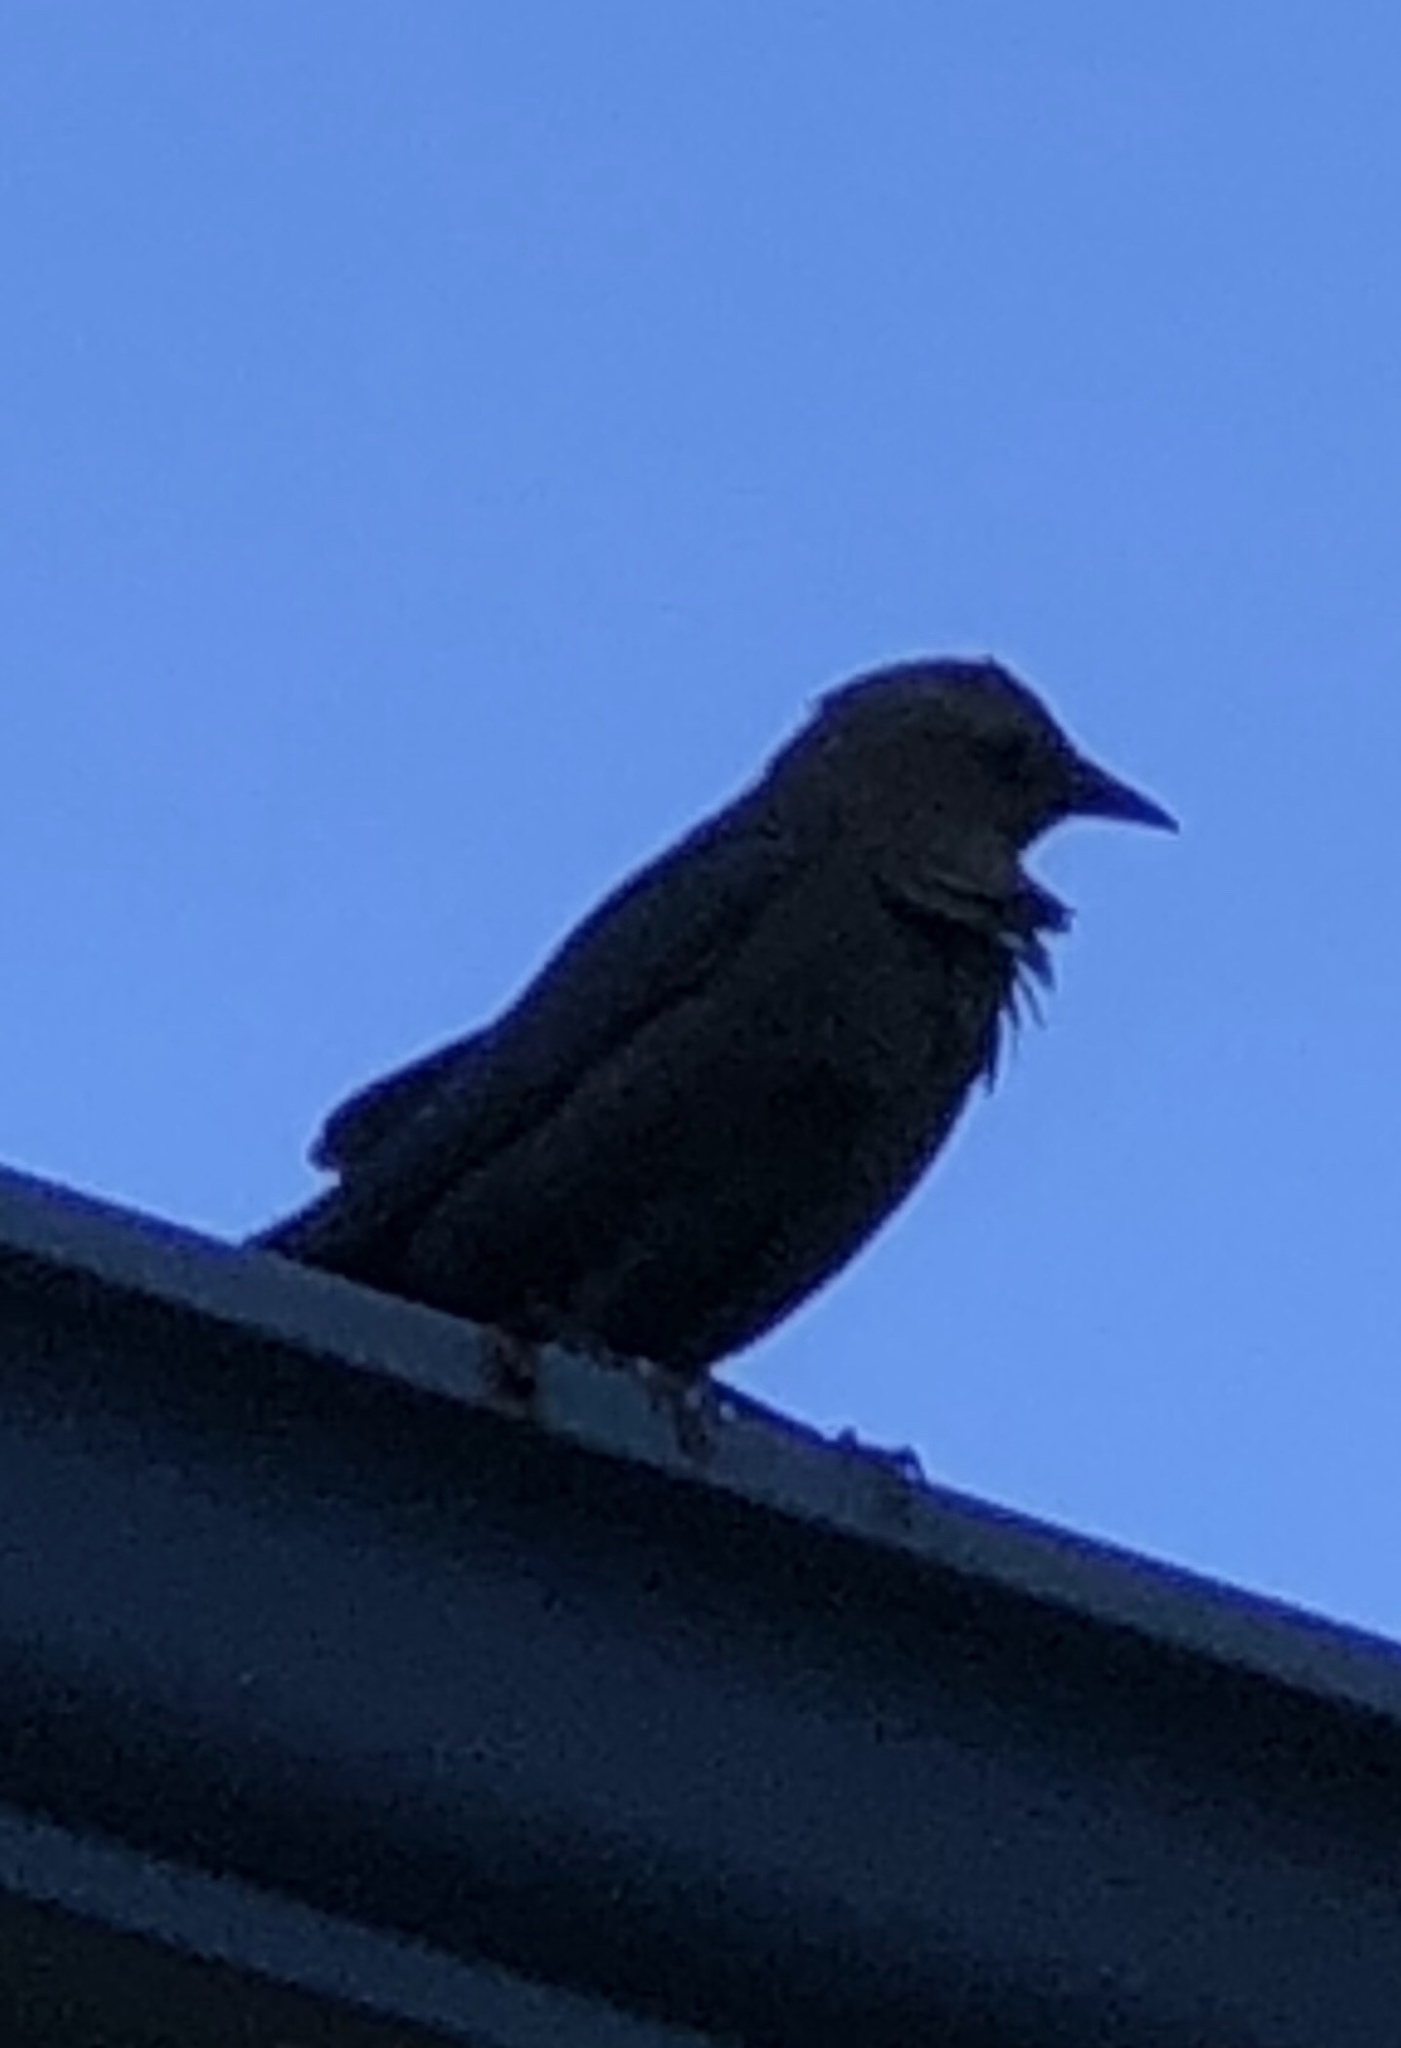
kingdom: Animalia
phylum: Chordata
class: Aves
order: Passeriformes
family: Icteridae
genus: Euphagus
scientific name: Euphagus cyanocephalus
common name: Brewer's blackbird
